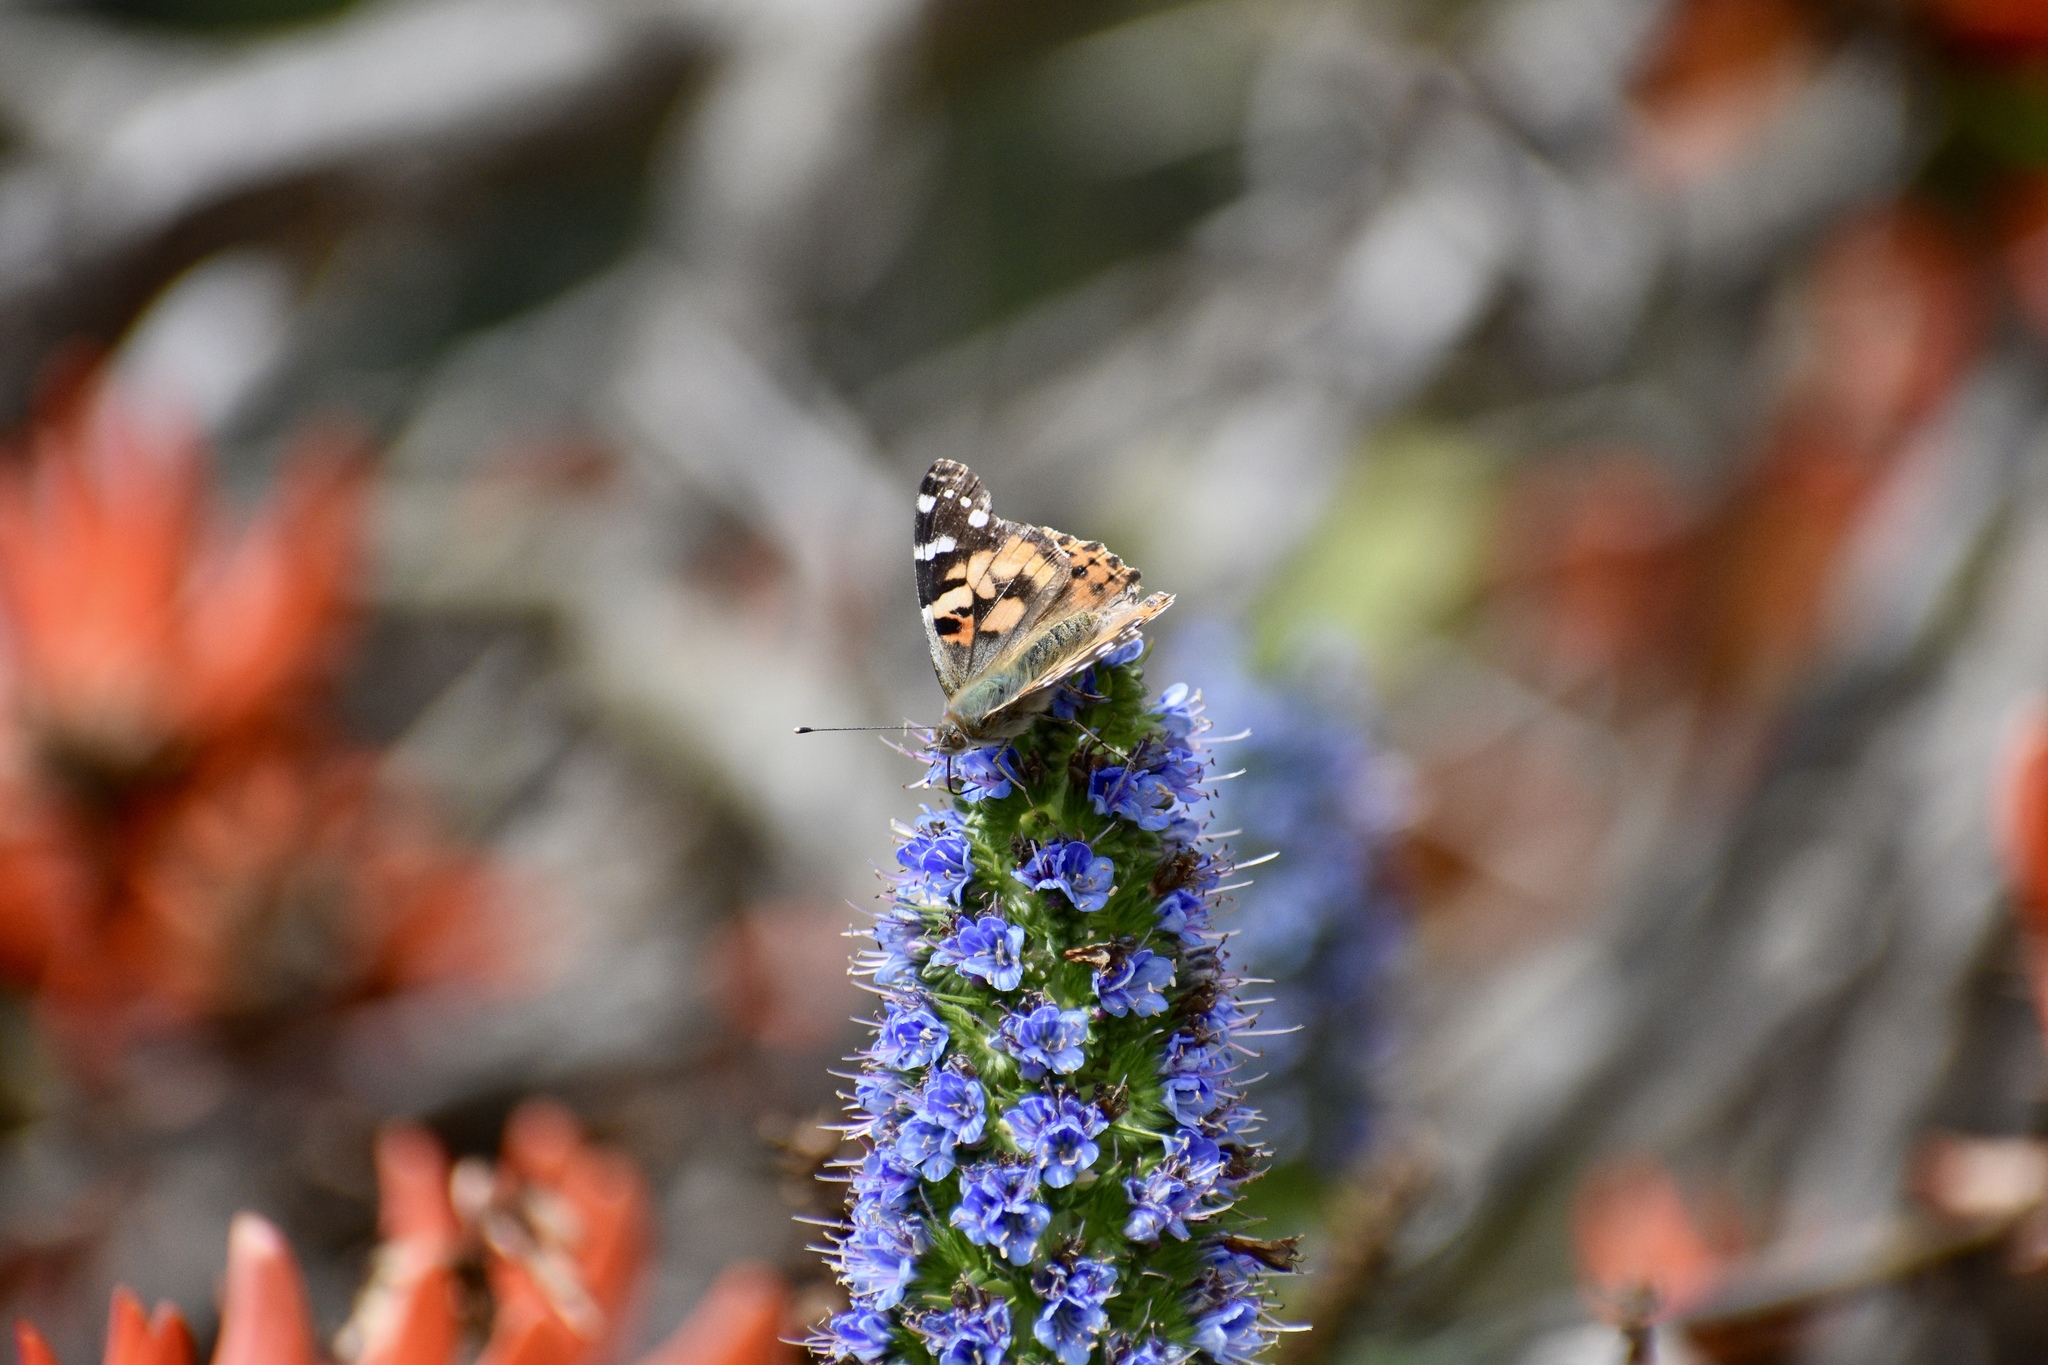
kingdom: Animalia
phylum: Arthropoda
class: Insecta
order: Lepidoptera
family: Nymphalidae
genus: Vanessa
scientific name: Vanessa cardui
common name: Painted lady
